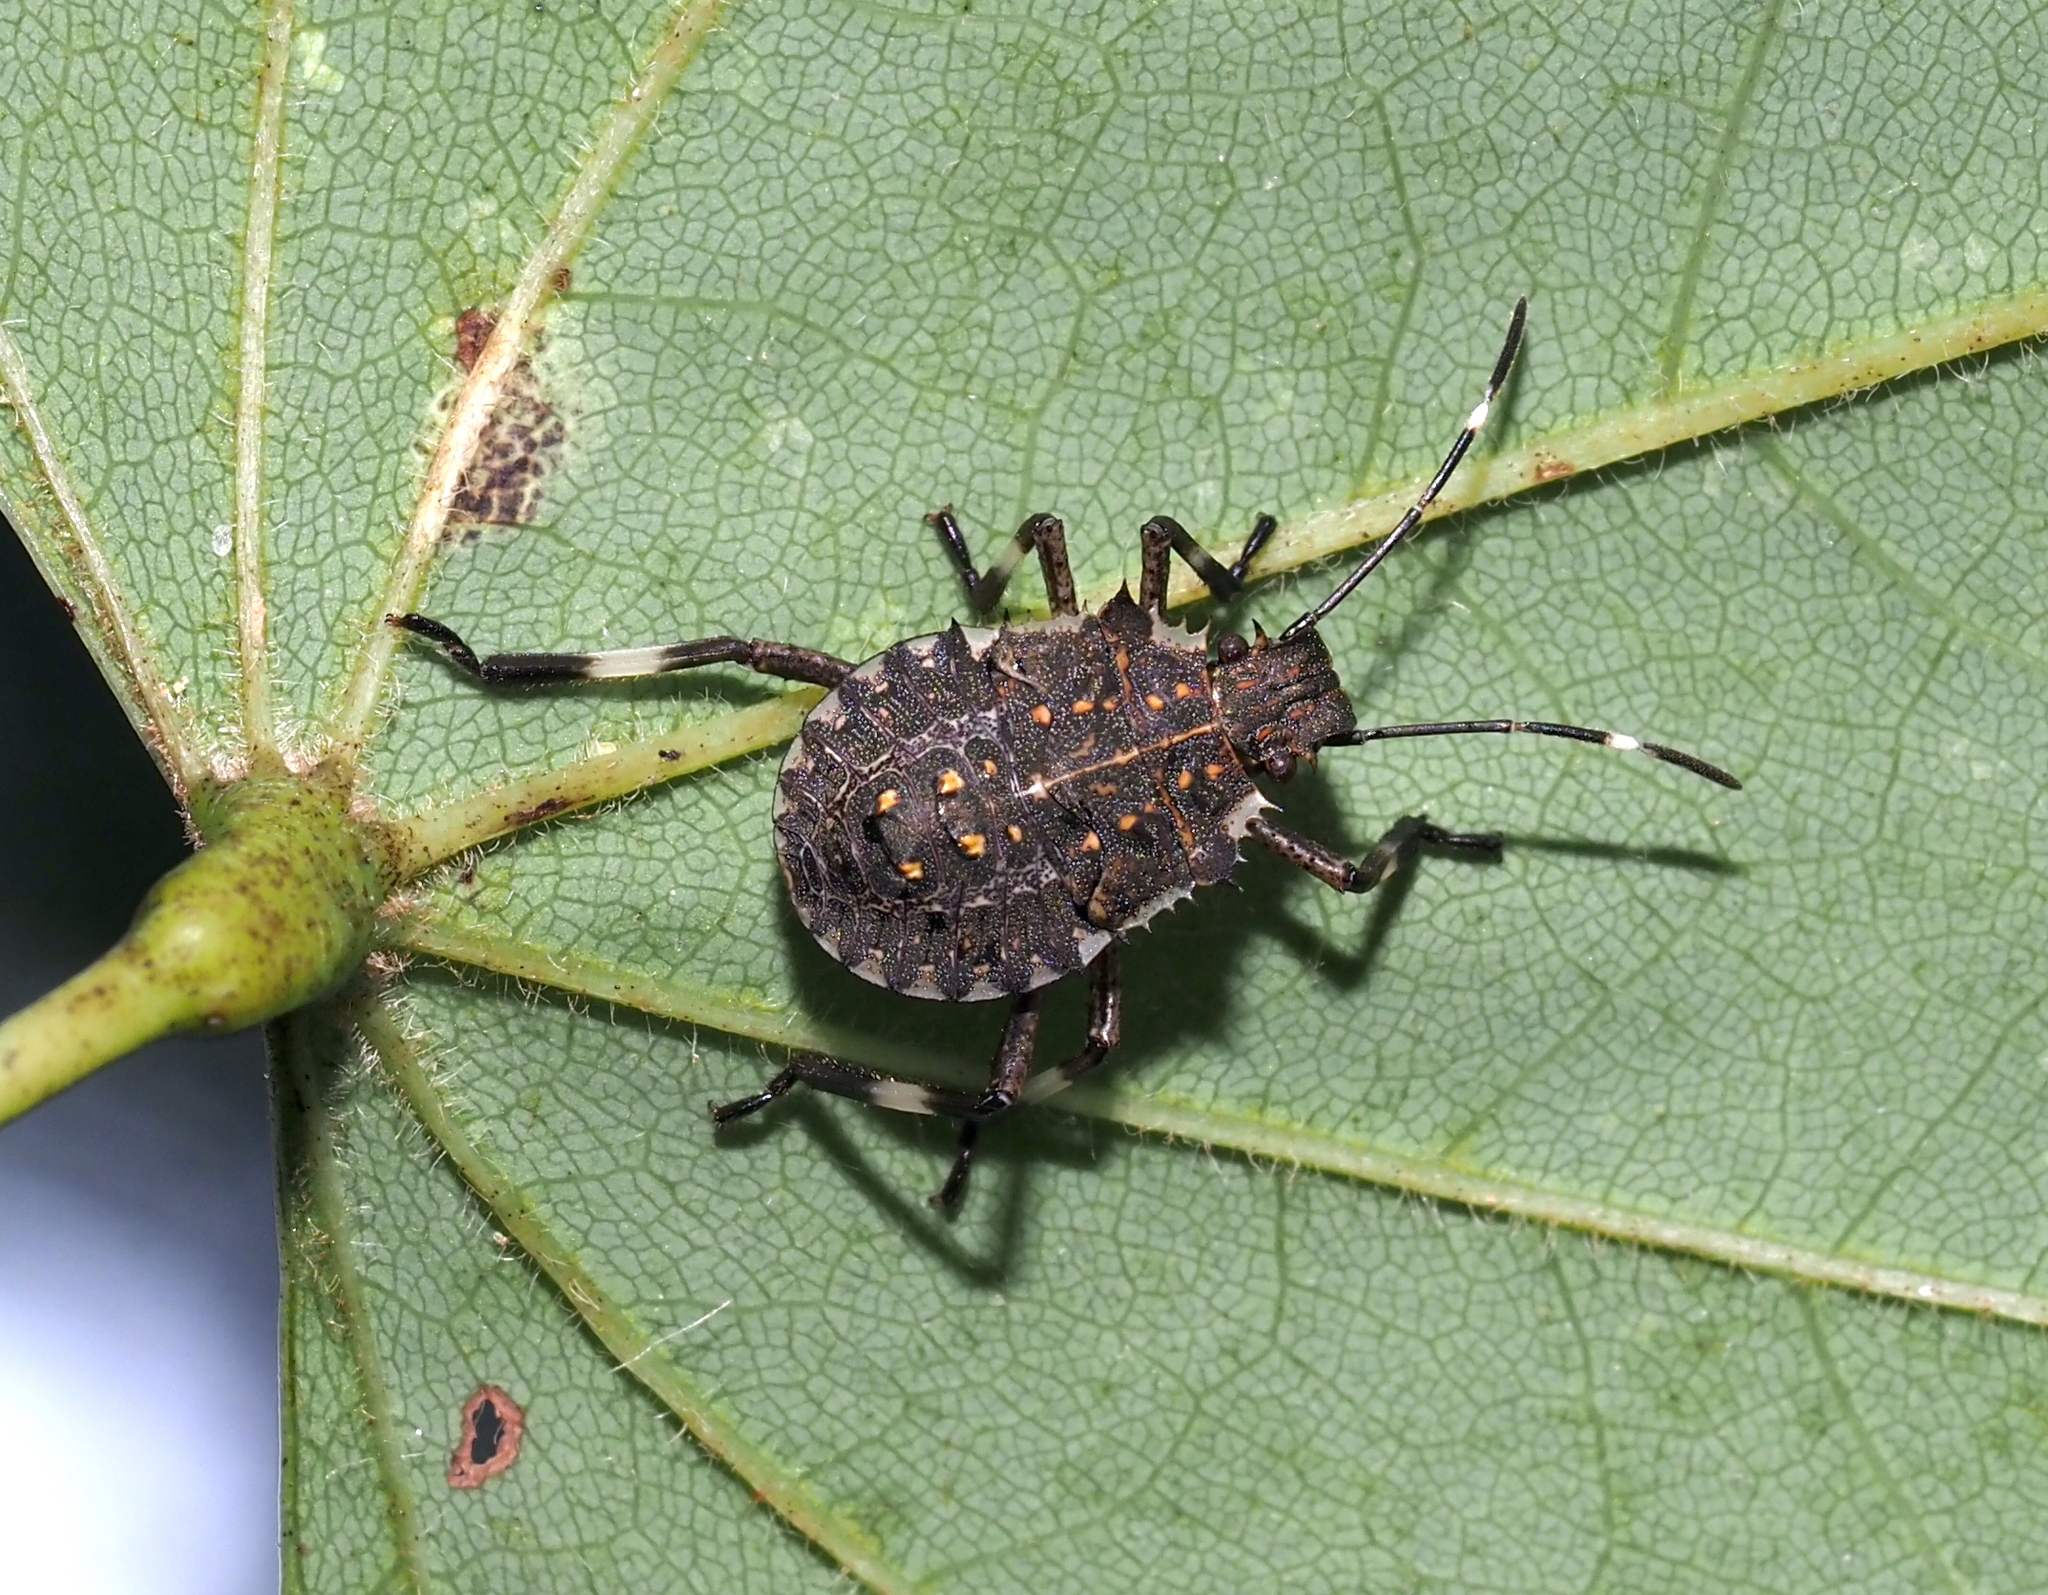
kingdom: Animalia
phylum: Arthropoda
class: Insecta
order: Hemiptera
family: Pentatomidae
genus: Halyomorpha
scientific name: Halyomorpha halys
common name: Brown marmorated stink bug
